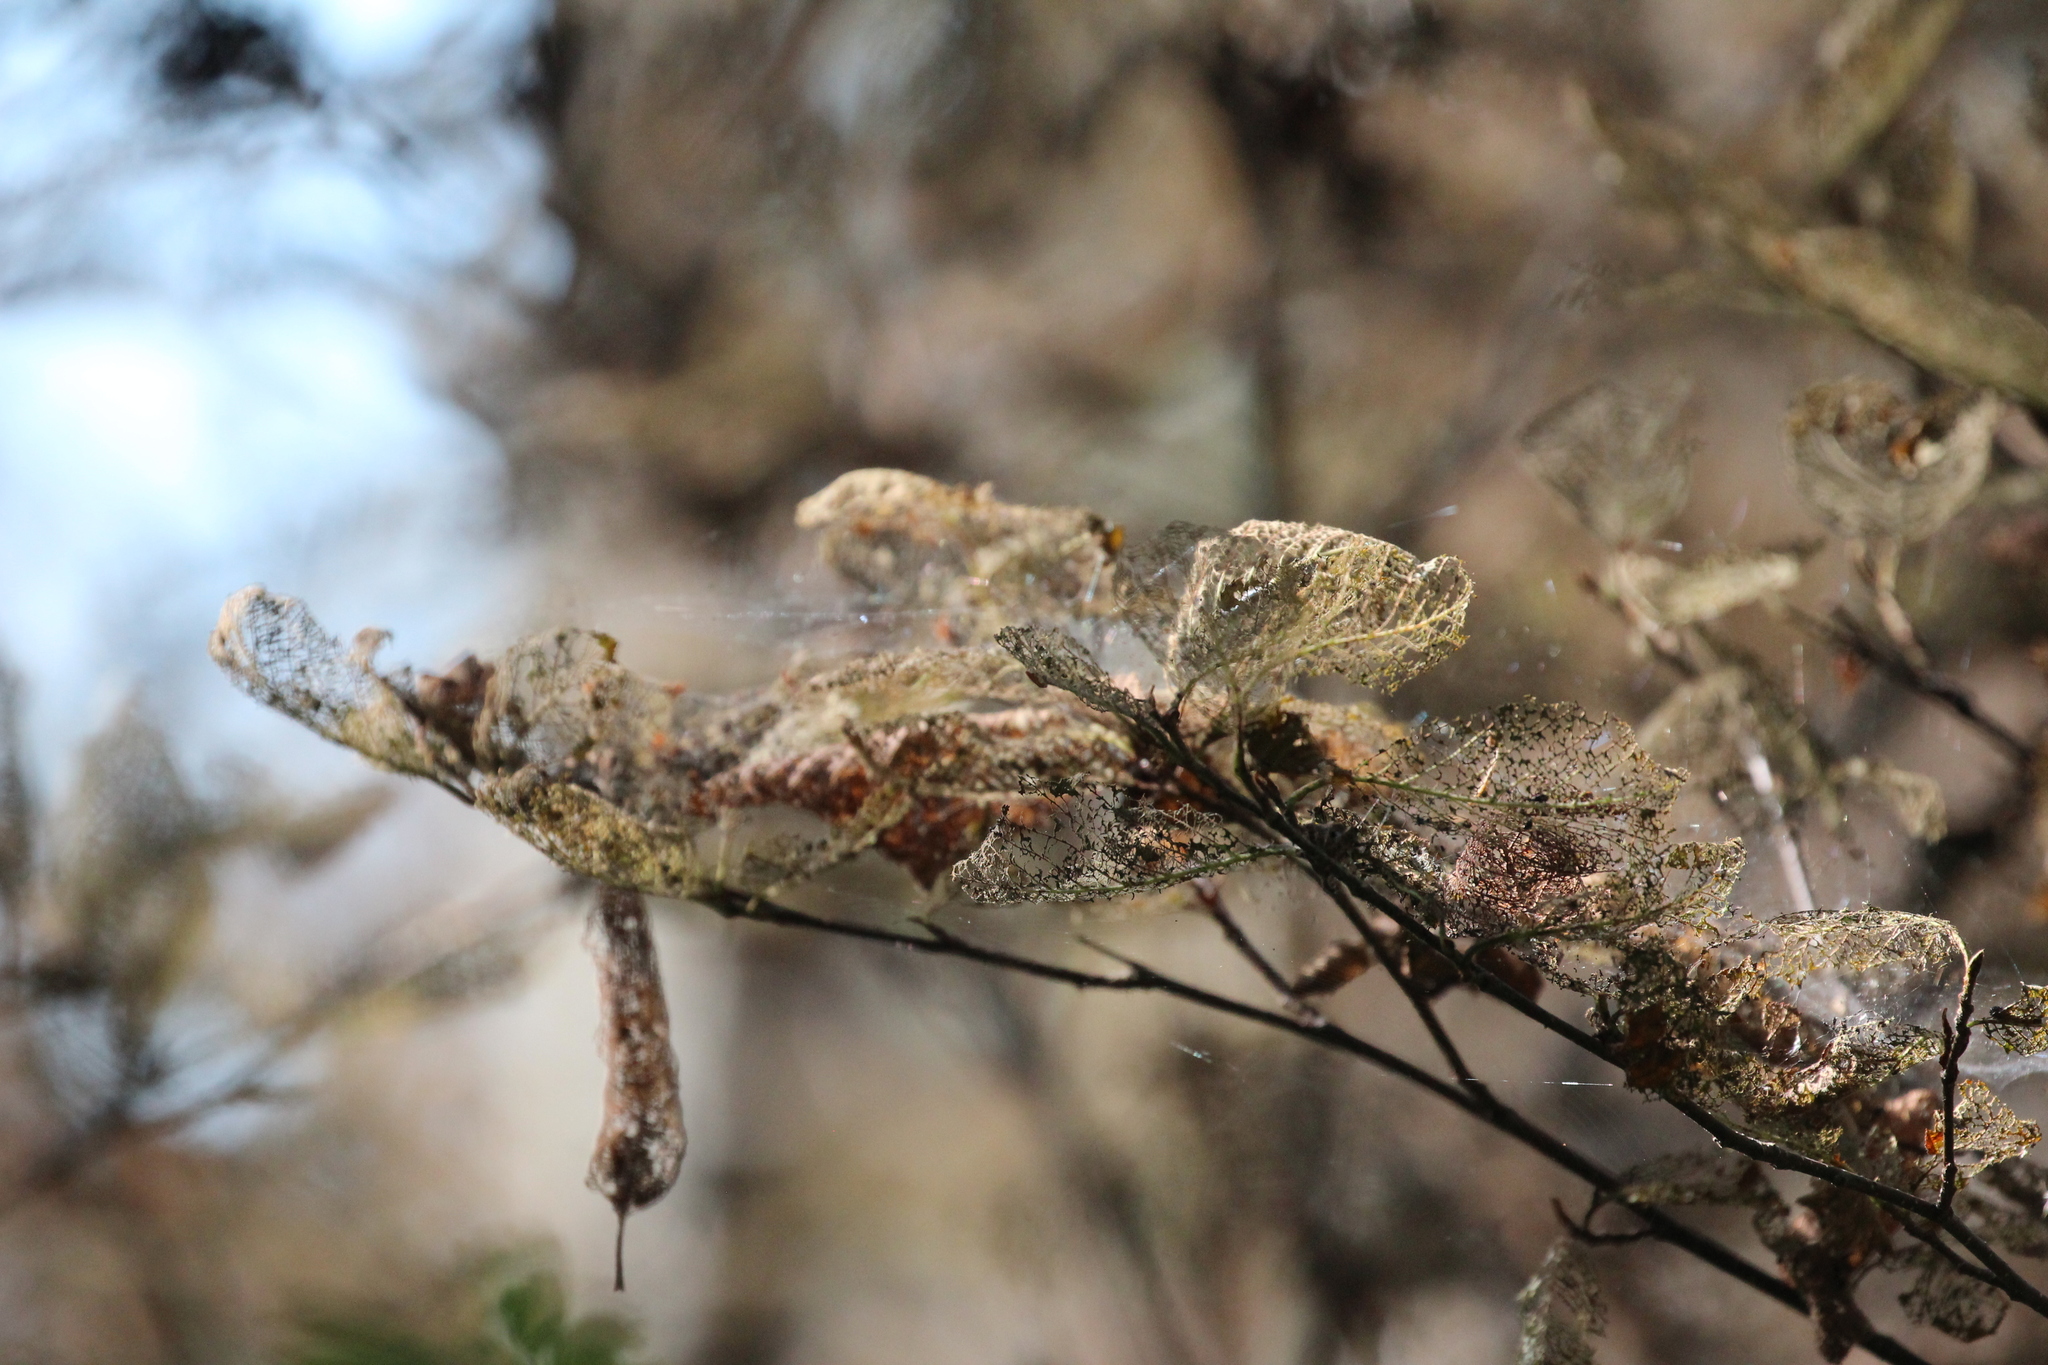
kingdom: Animalia
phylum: Arthropoda
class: Insecta
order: Coleoptera
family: Chrysomelidae
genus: Altica
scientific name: Altica ambiens
